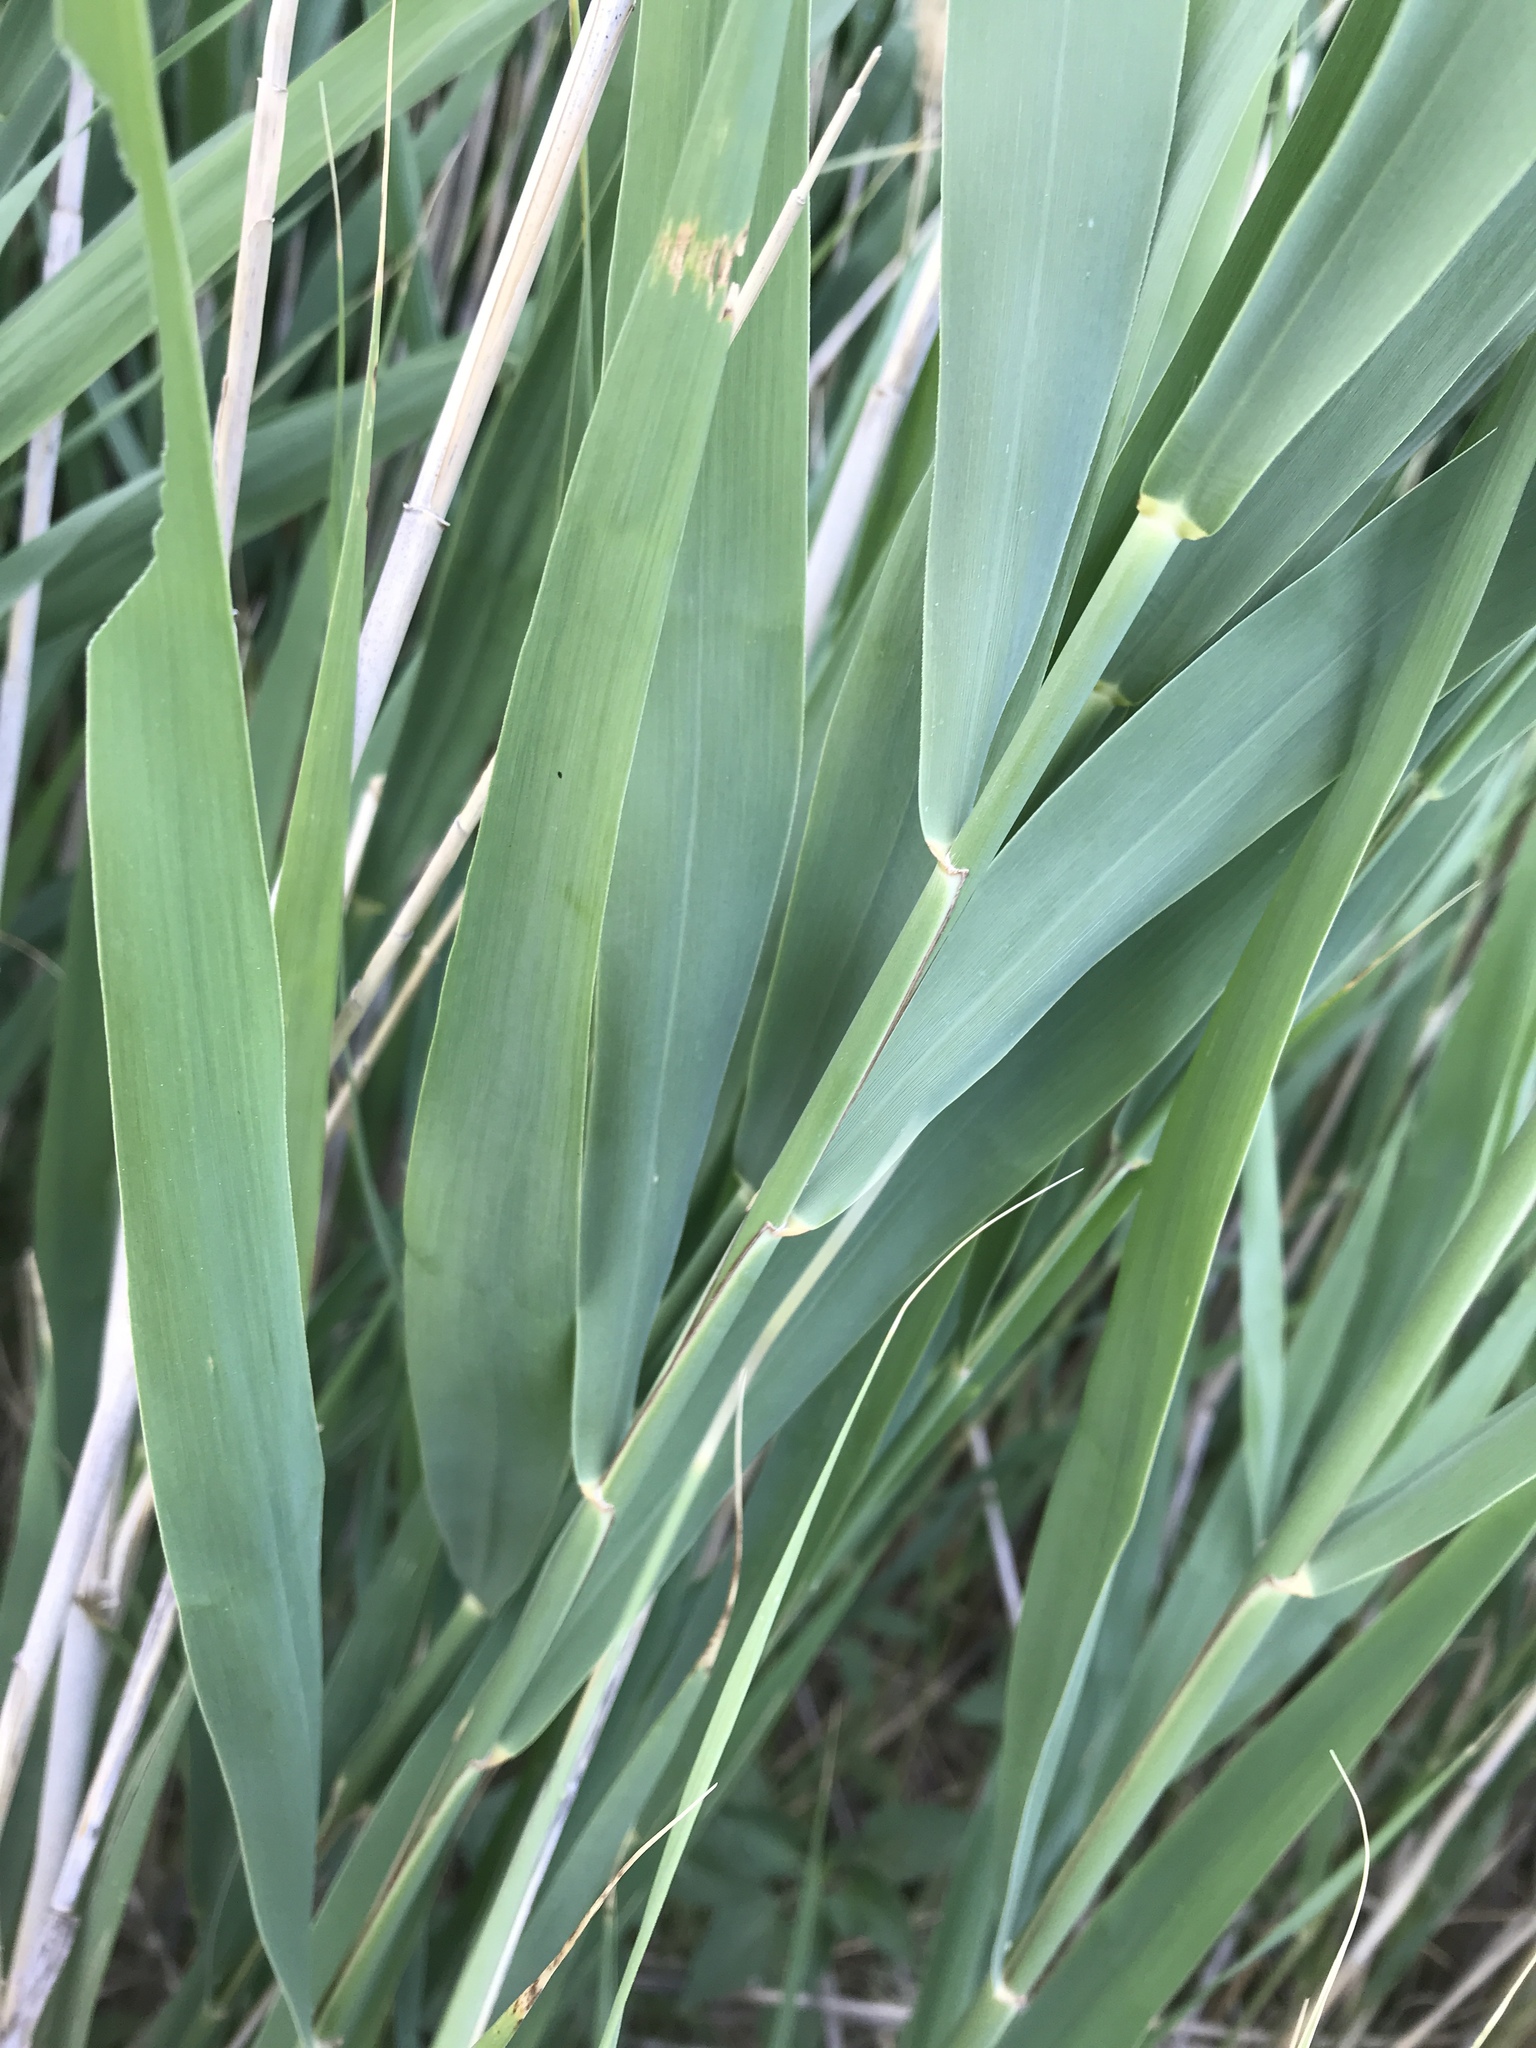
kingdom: Plantae
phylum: Tracheophyta
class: Liliopsida
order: Poales
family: Poaceae
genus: Phragmites
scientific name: Phragmites australis
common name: Common reed
